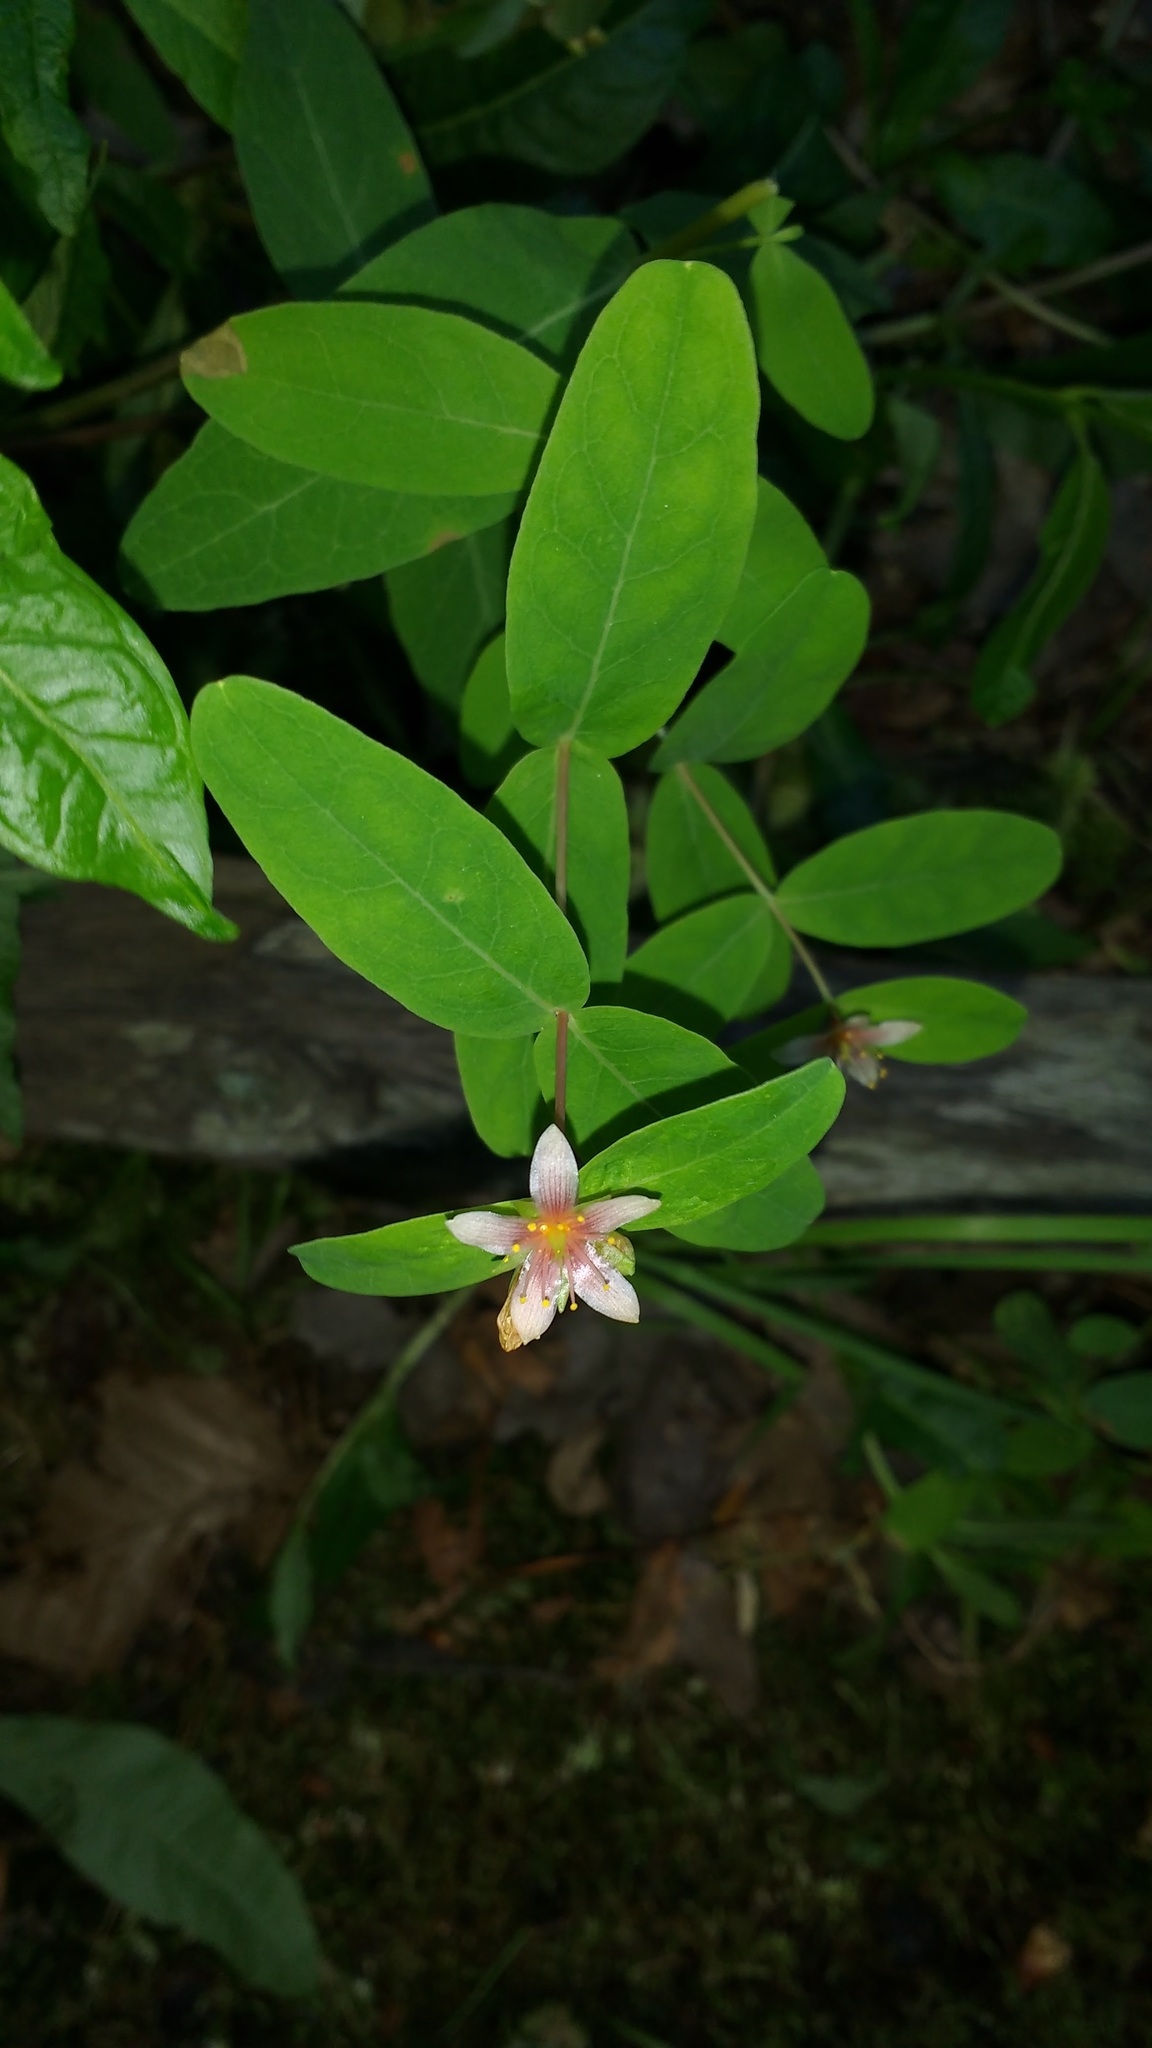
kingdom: Plantae
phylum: Tracheophyta
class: Magnoliopsida
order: Malpighiales
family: Hypericaceae
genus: Triadenum
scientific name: Triadenum virginicum
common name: Marsh st. john's-wort
